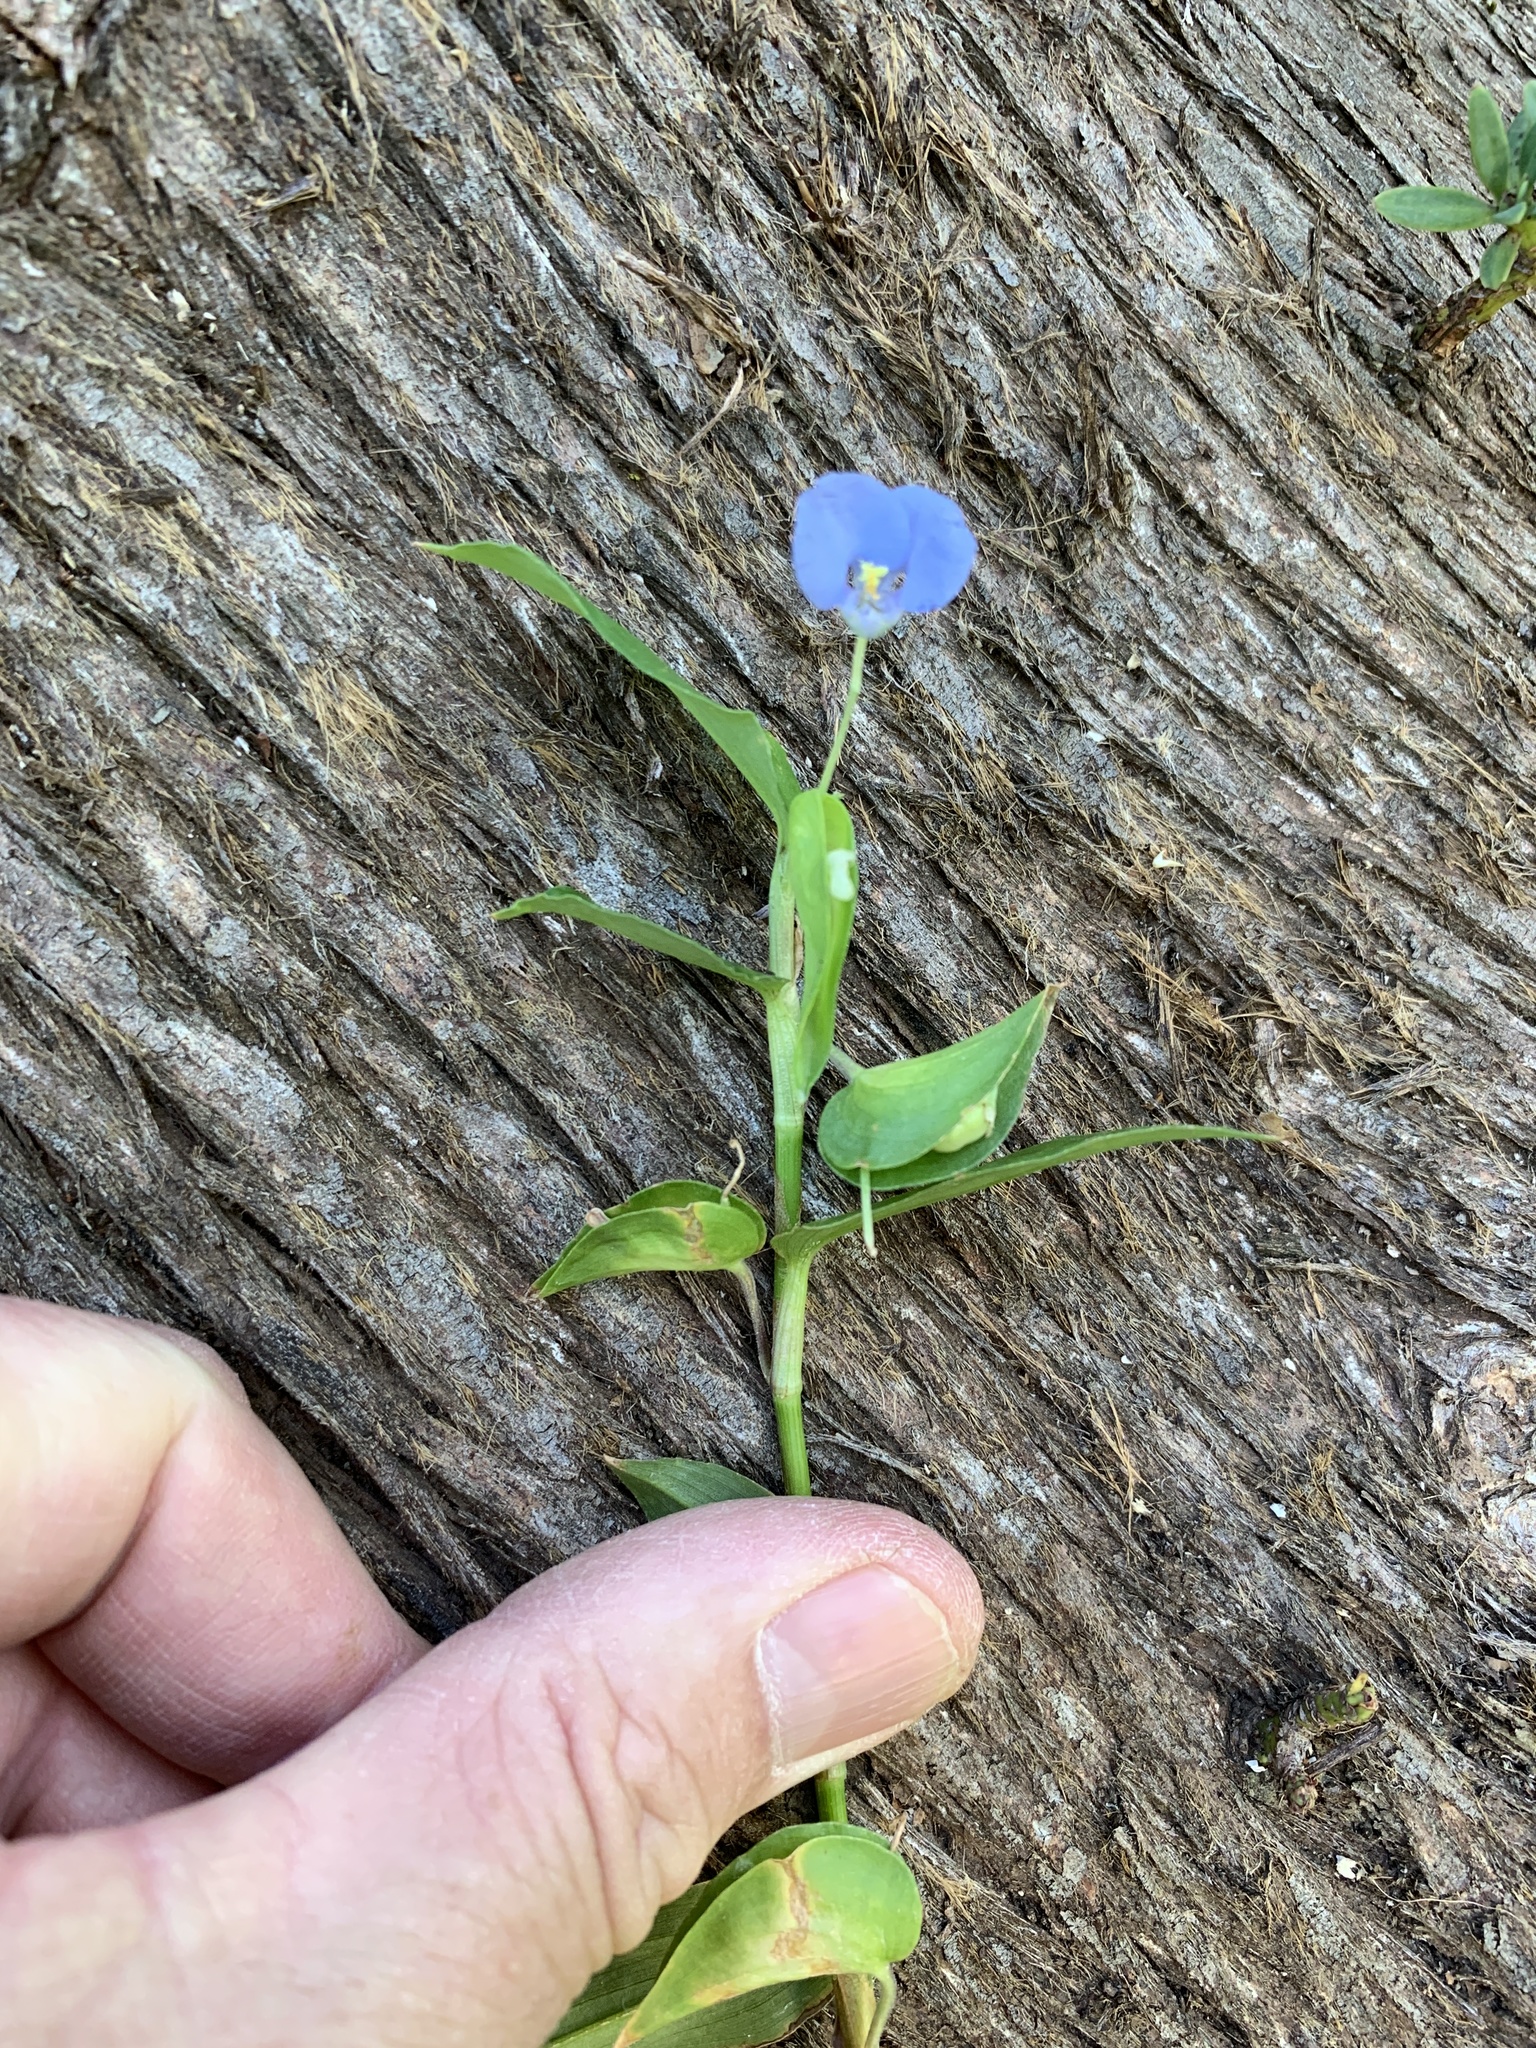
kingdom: Plantae
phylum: Tracheophyta
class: Liliopsida
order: Commelinales
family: Commelinaceae
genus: Commelina
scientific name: Commelina diffusa
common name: Climbing dayflower
